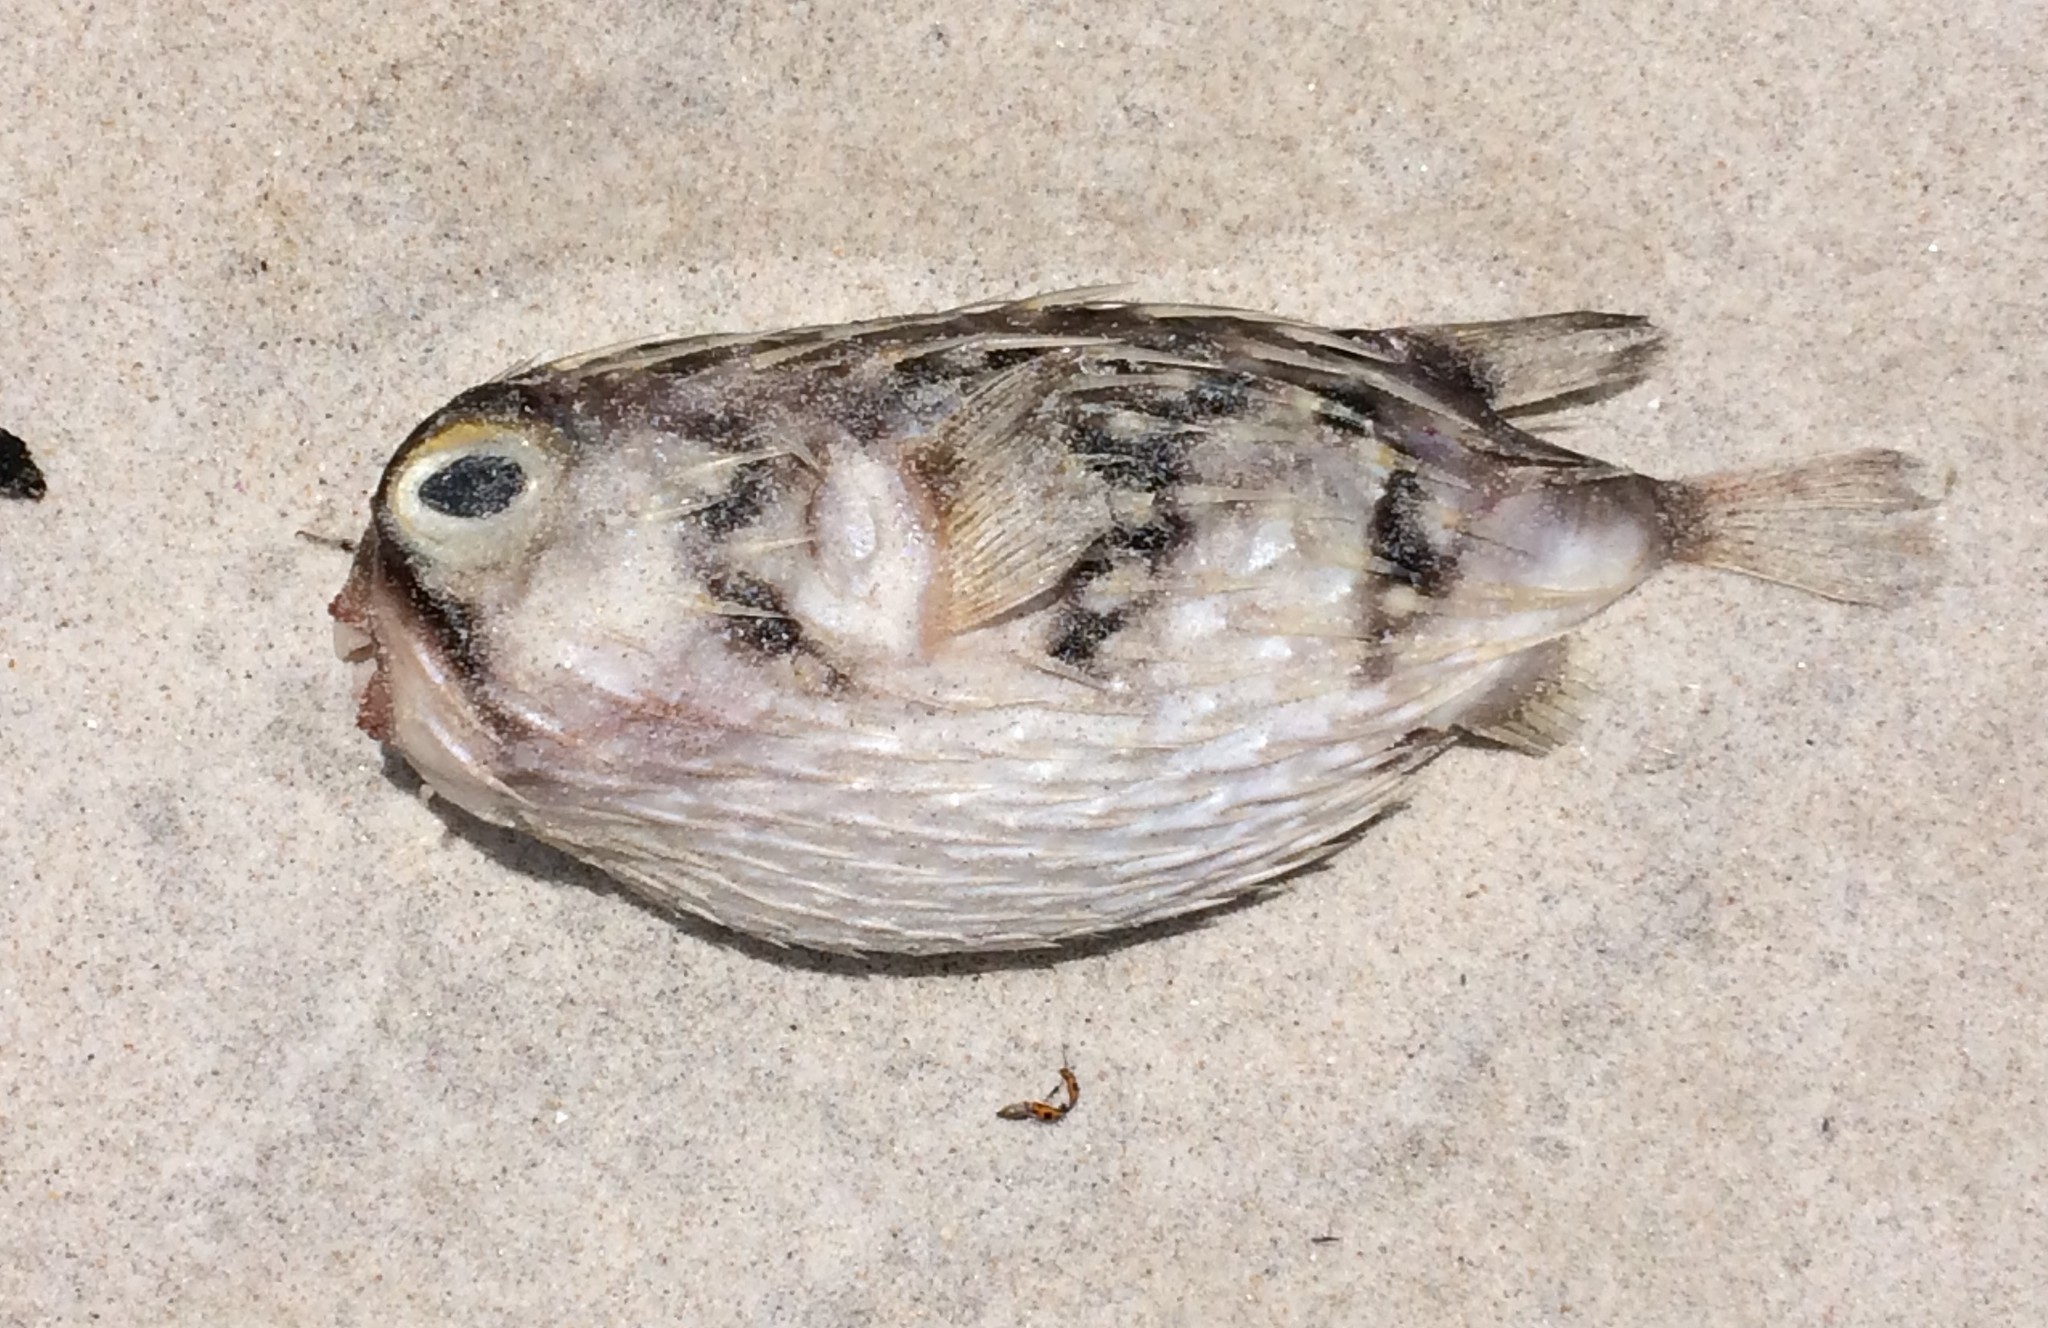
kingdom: Animalia
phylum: Chordata
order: Tetraodontiformes
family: Diodontidae
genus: Diodon
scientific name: Diodon nicthemerus
